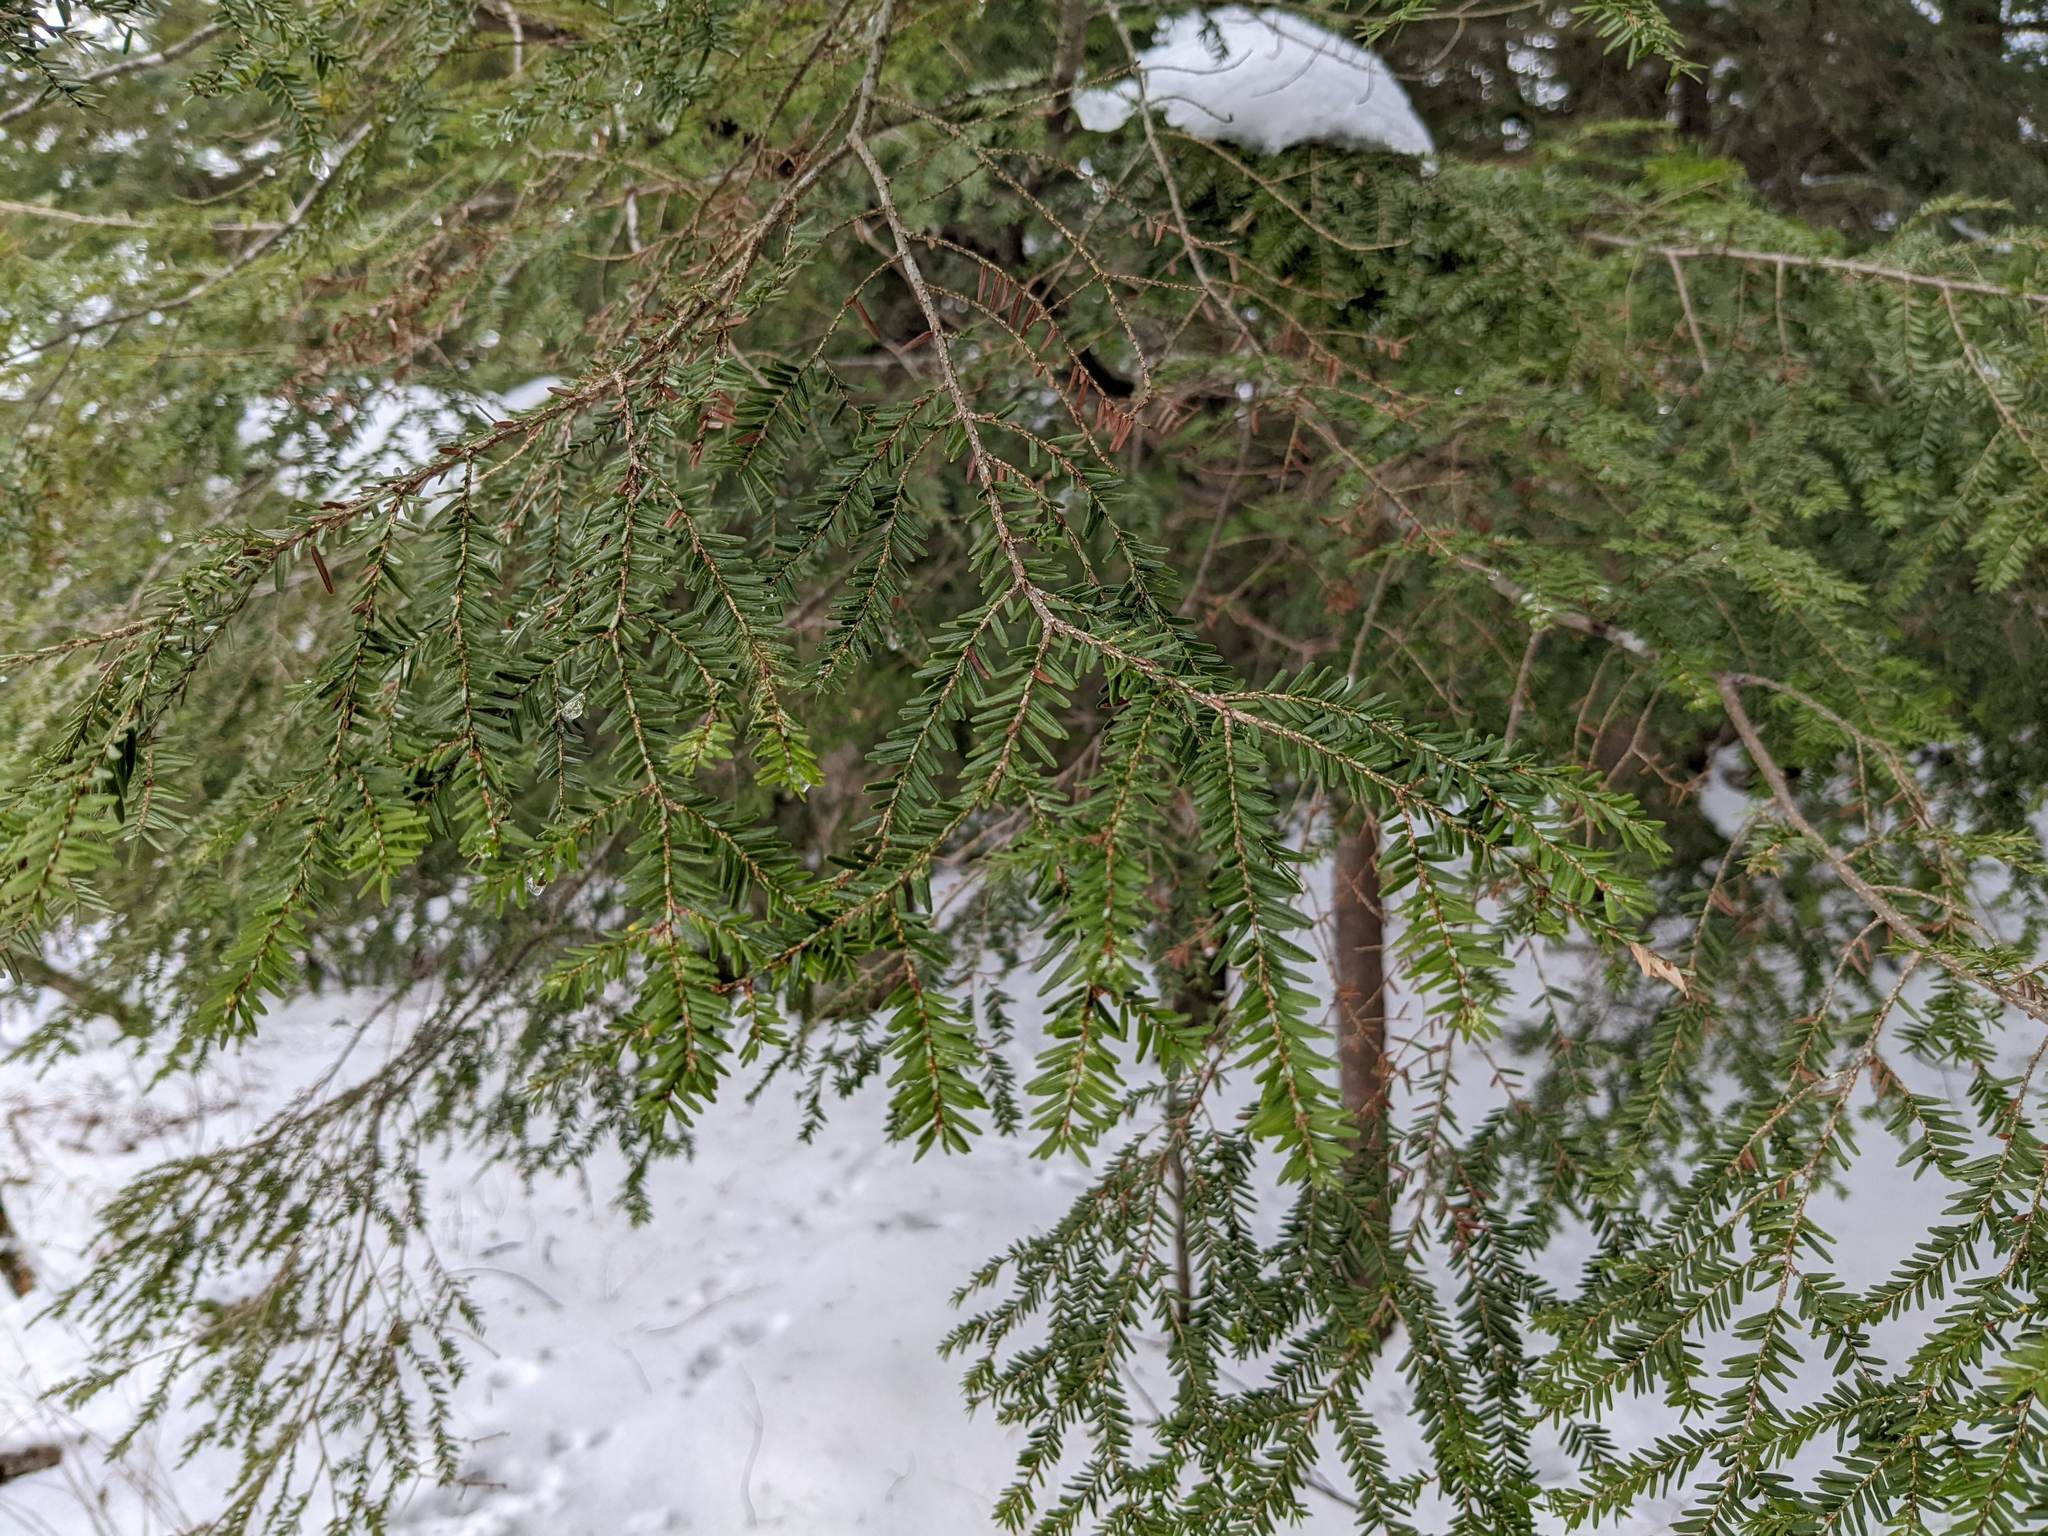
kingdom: Plantae
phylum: Tracheophyta
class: Pinopsida
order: Pinales
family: Pinaceae
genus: Tsuga
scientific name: Tsuga canadensis
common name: Eastern hemlock
